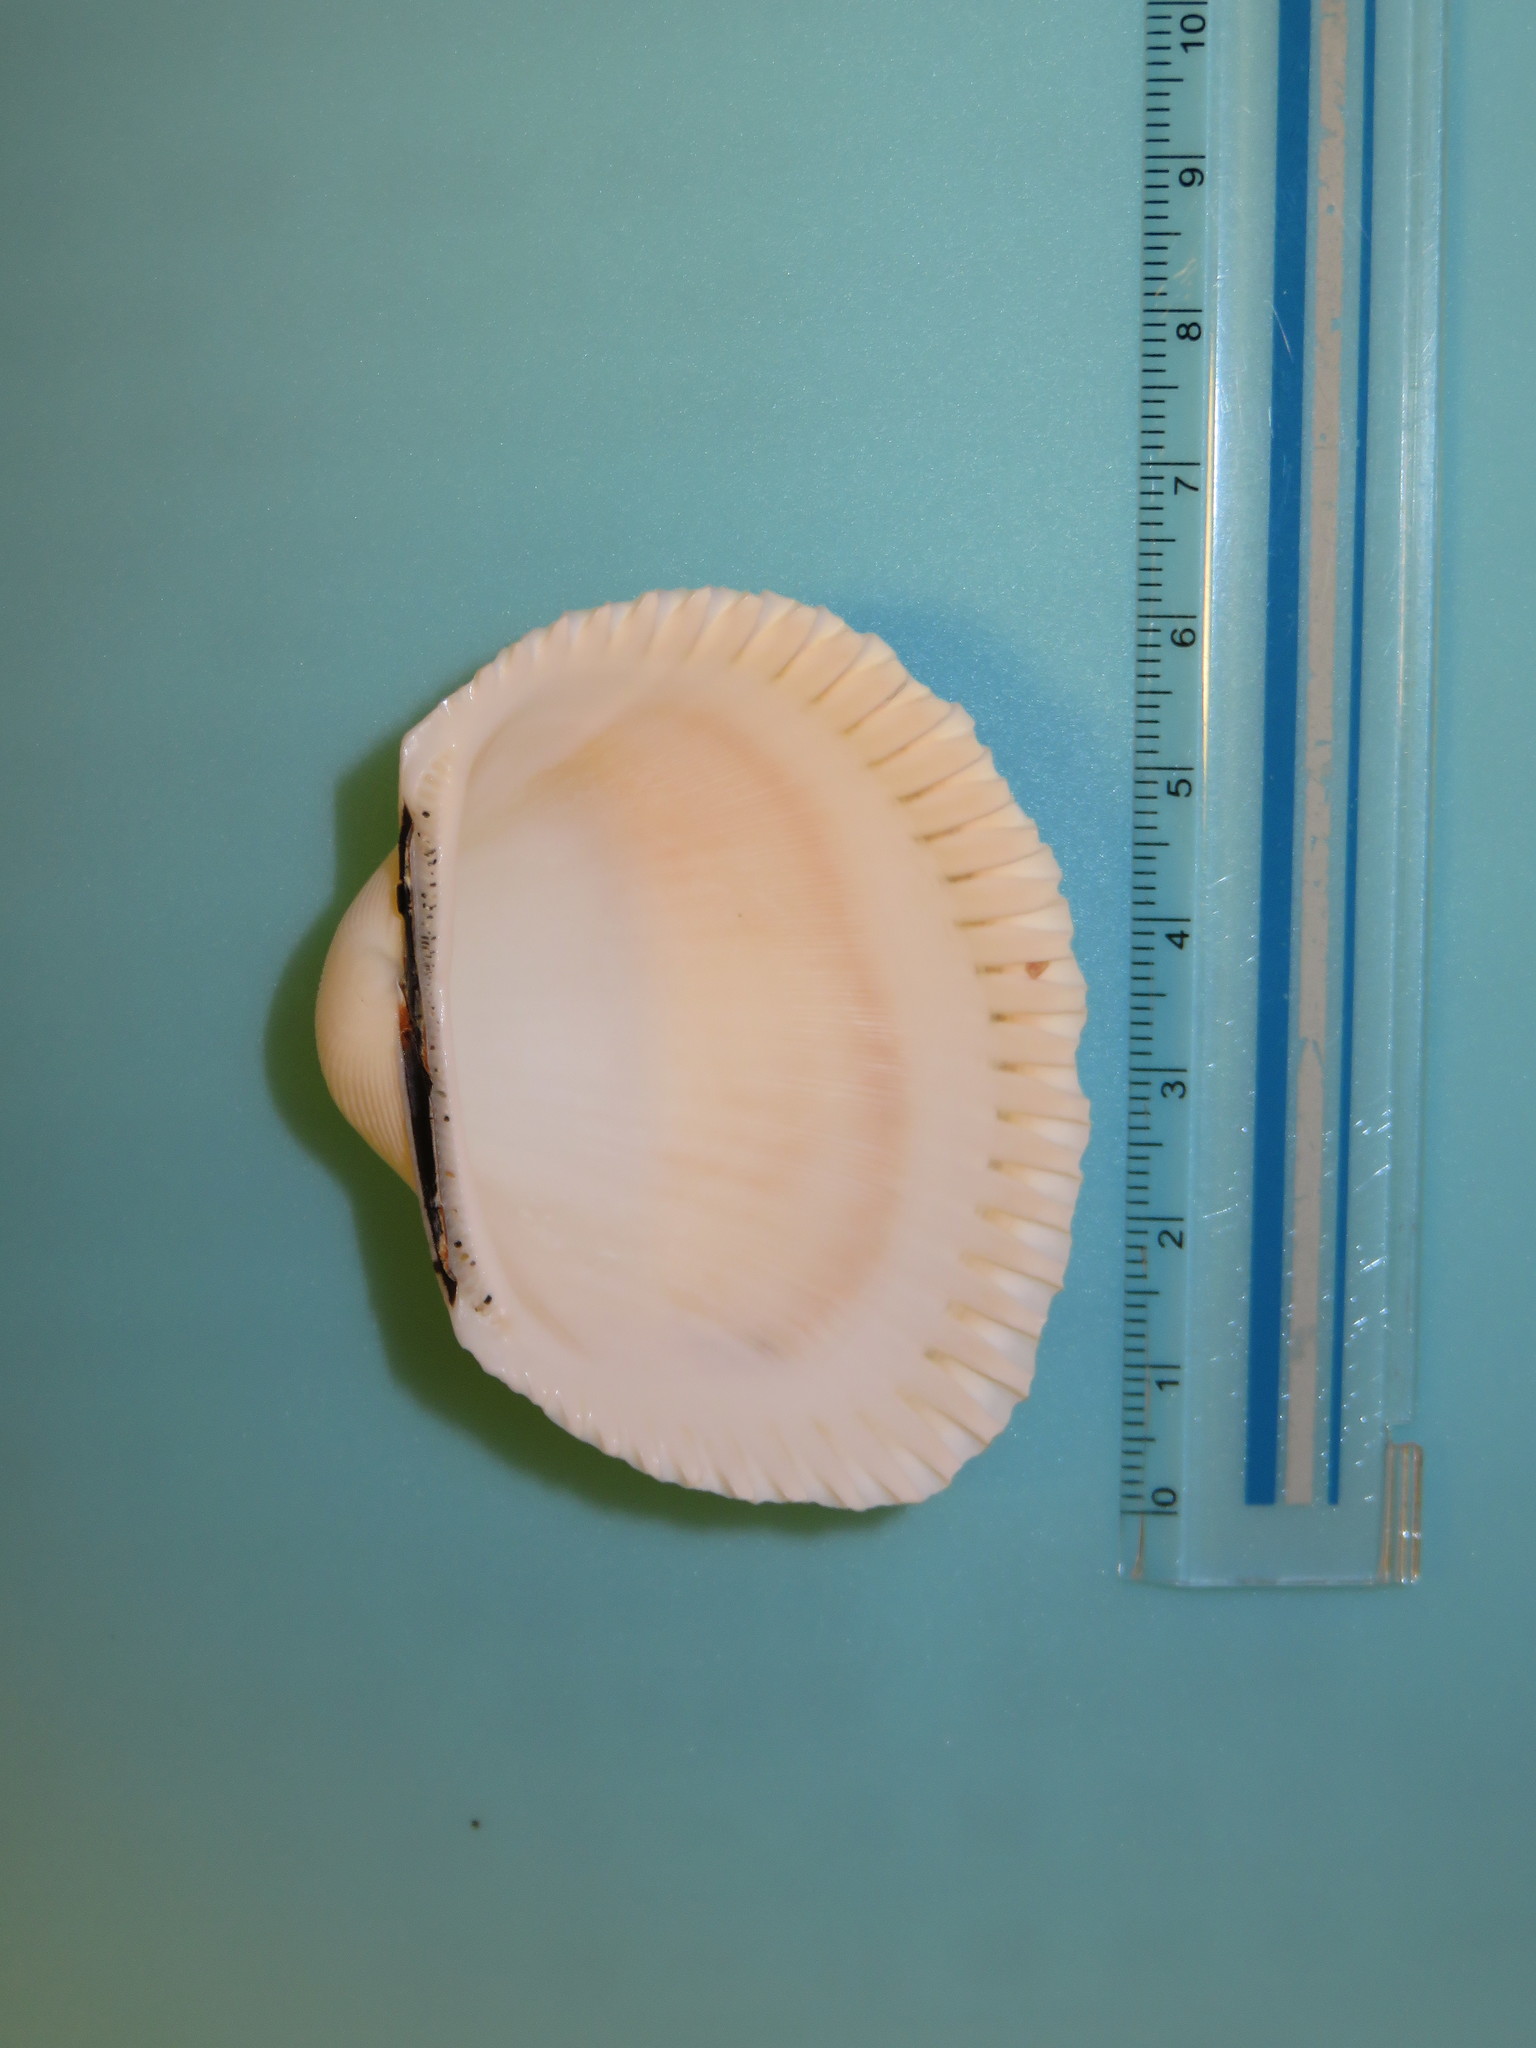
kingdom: Animalia
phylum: Mollusca
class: Bivalvia
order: Arcida
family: Arcidae
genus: Anadara
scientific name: Anadara satowi
